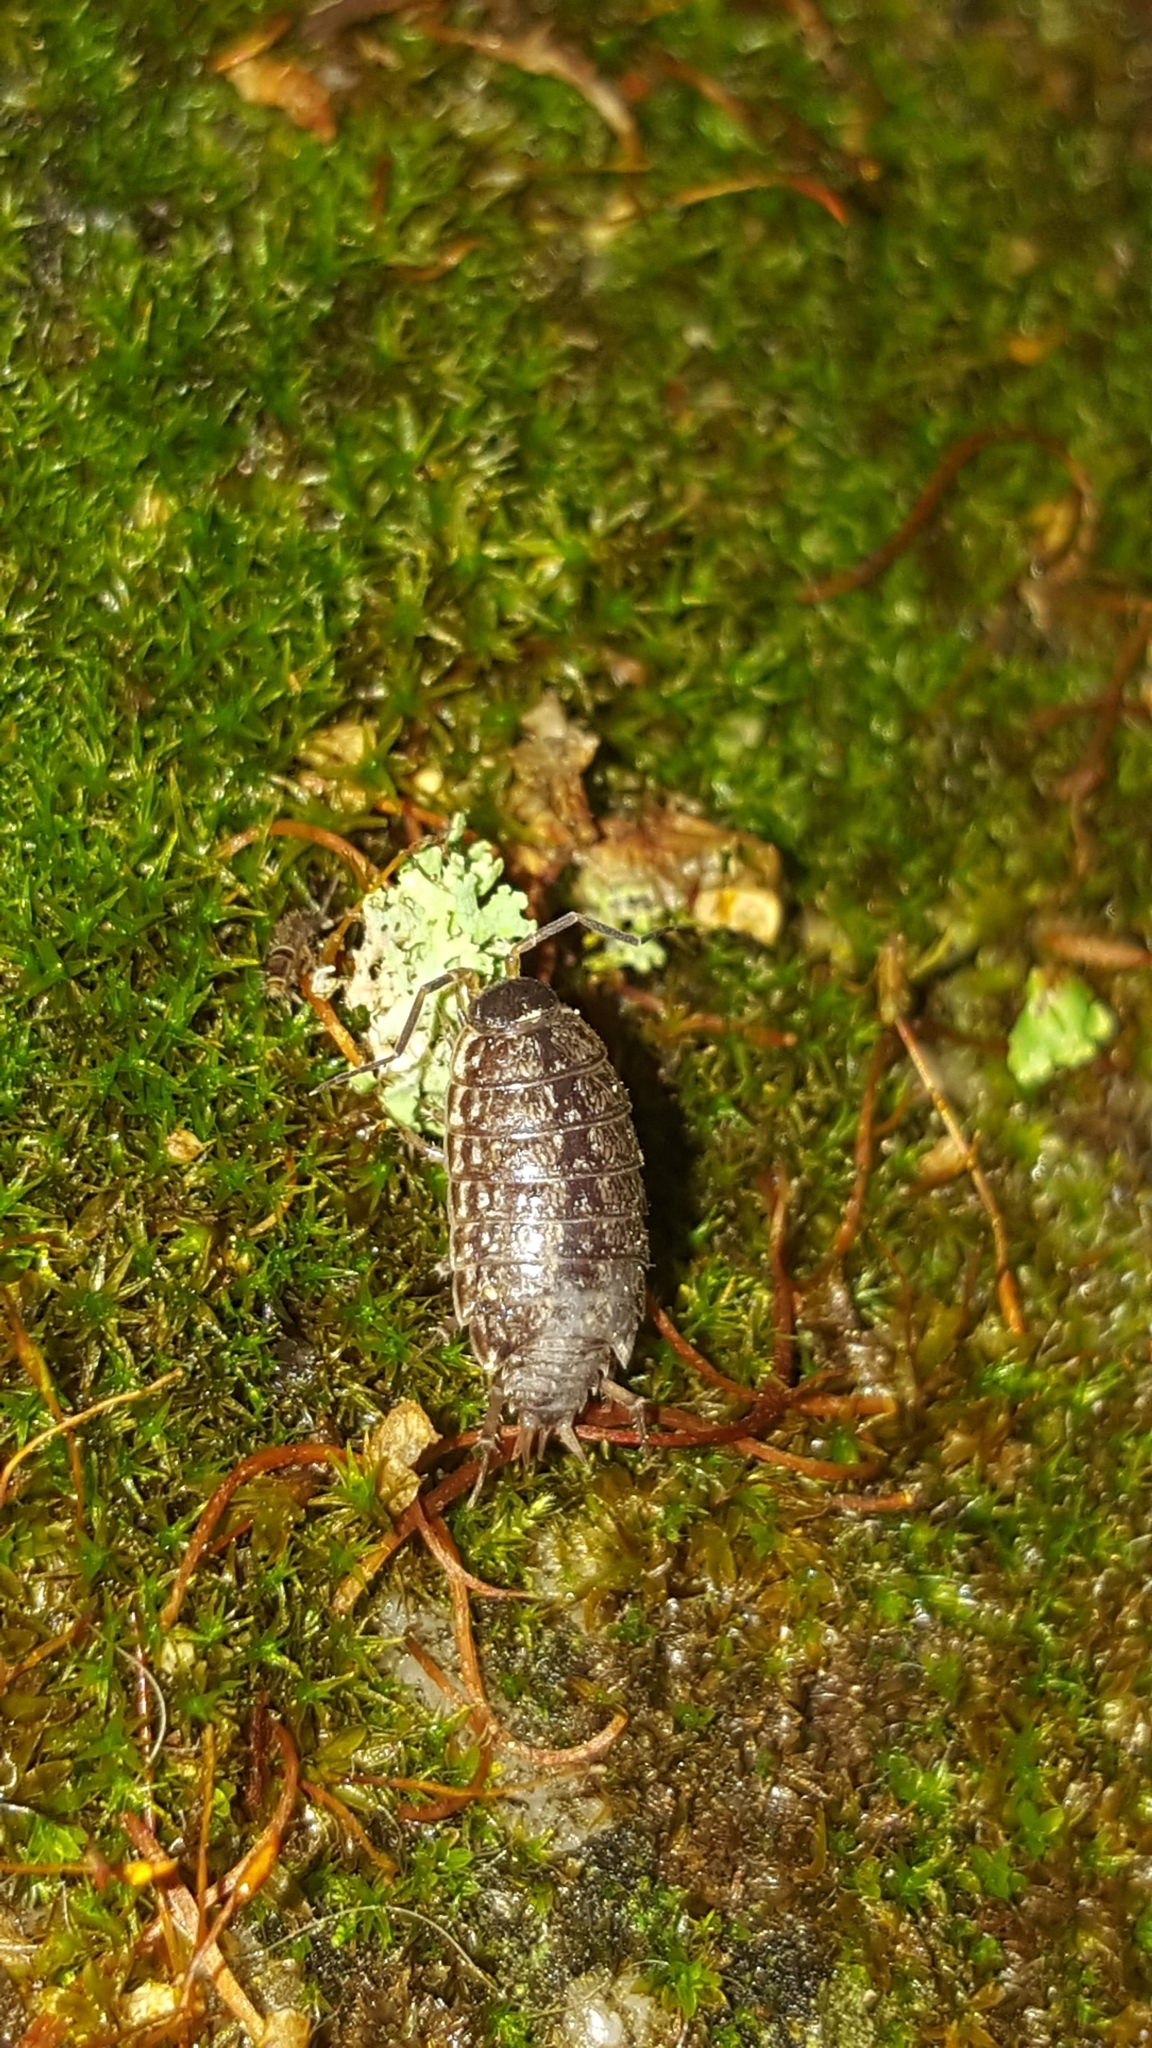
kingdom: Animalia
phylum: Arthropoda
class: Malacostraca
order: Isopoda
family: Philosciidae
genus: Philoscia
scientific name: Philoscia muscorum
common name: Common striped woodlouse
